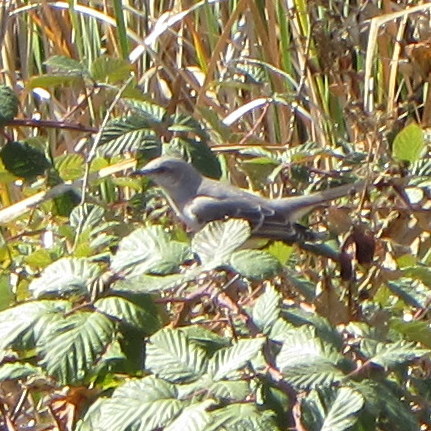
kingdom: Animalia
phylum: Chordata
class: Aves
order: Passeriformes
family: Mimidae
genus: Mimus
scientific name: Mimus polyglottos
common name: Northern mockingbird
